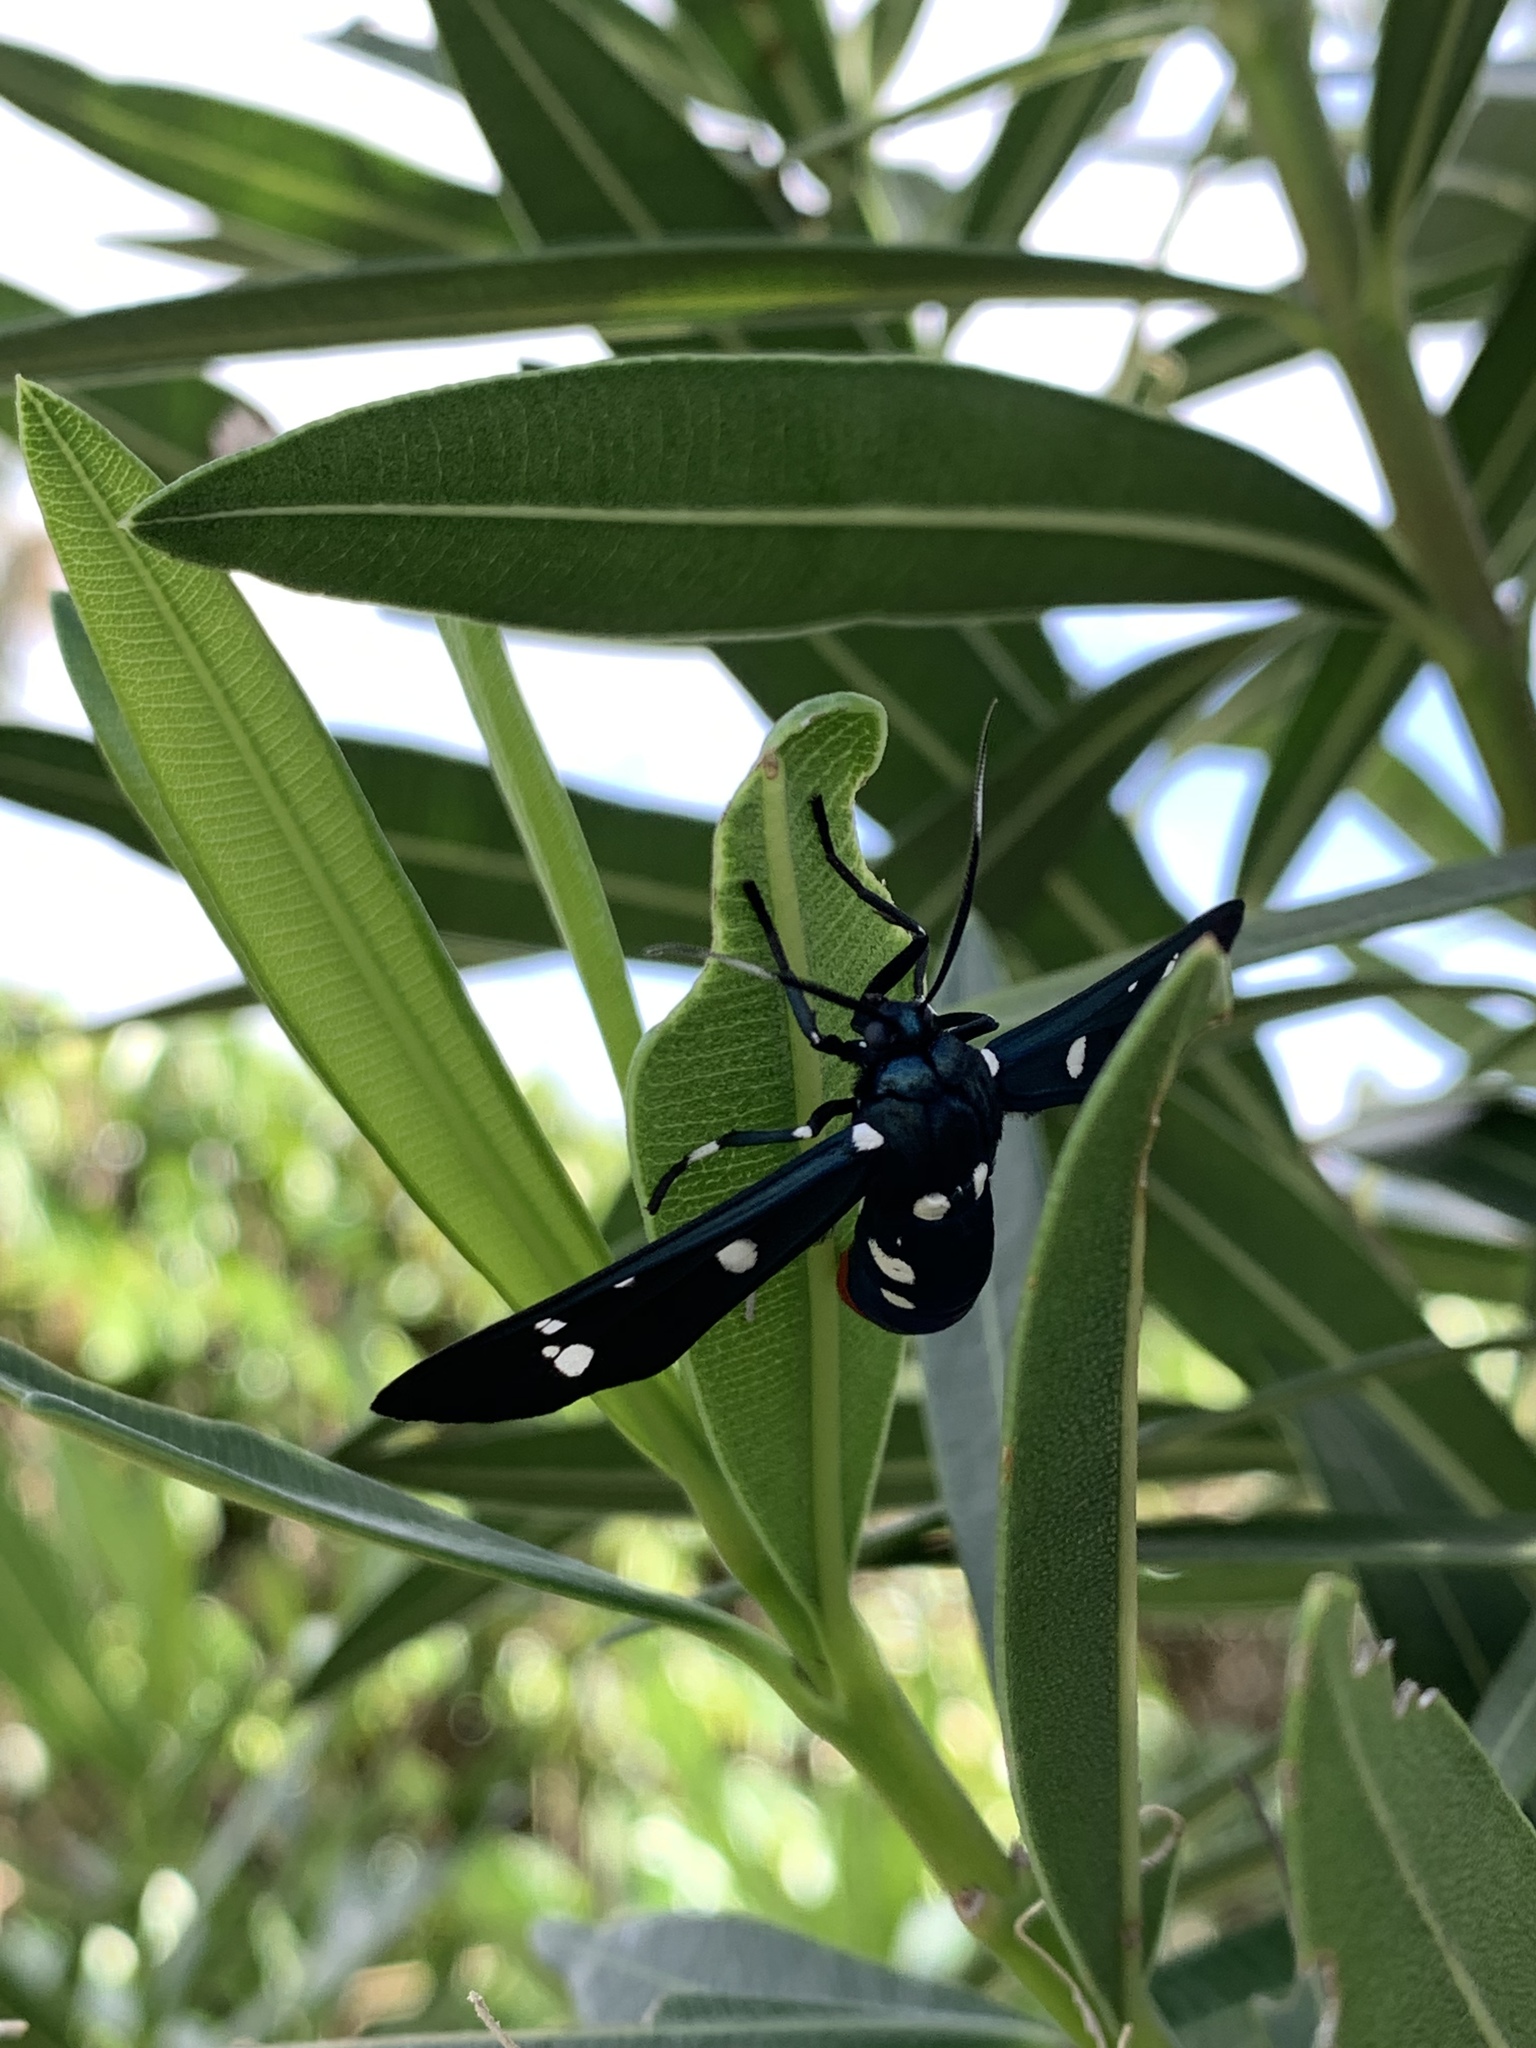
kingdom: Animalia
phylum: Arthropoda
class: Insecta
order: Lepidoptera
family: Erebidae
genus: Syntomeida
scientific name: Syntomeida epilais
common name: Polka-dot wasp moth
